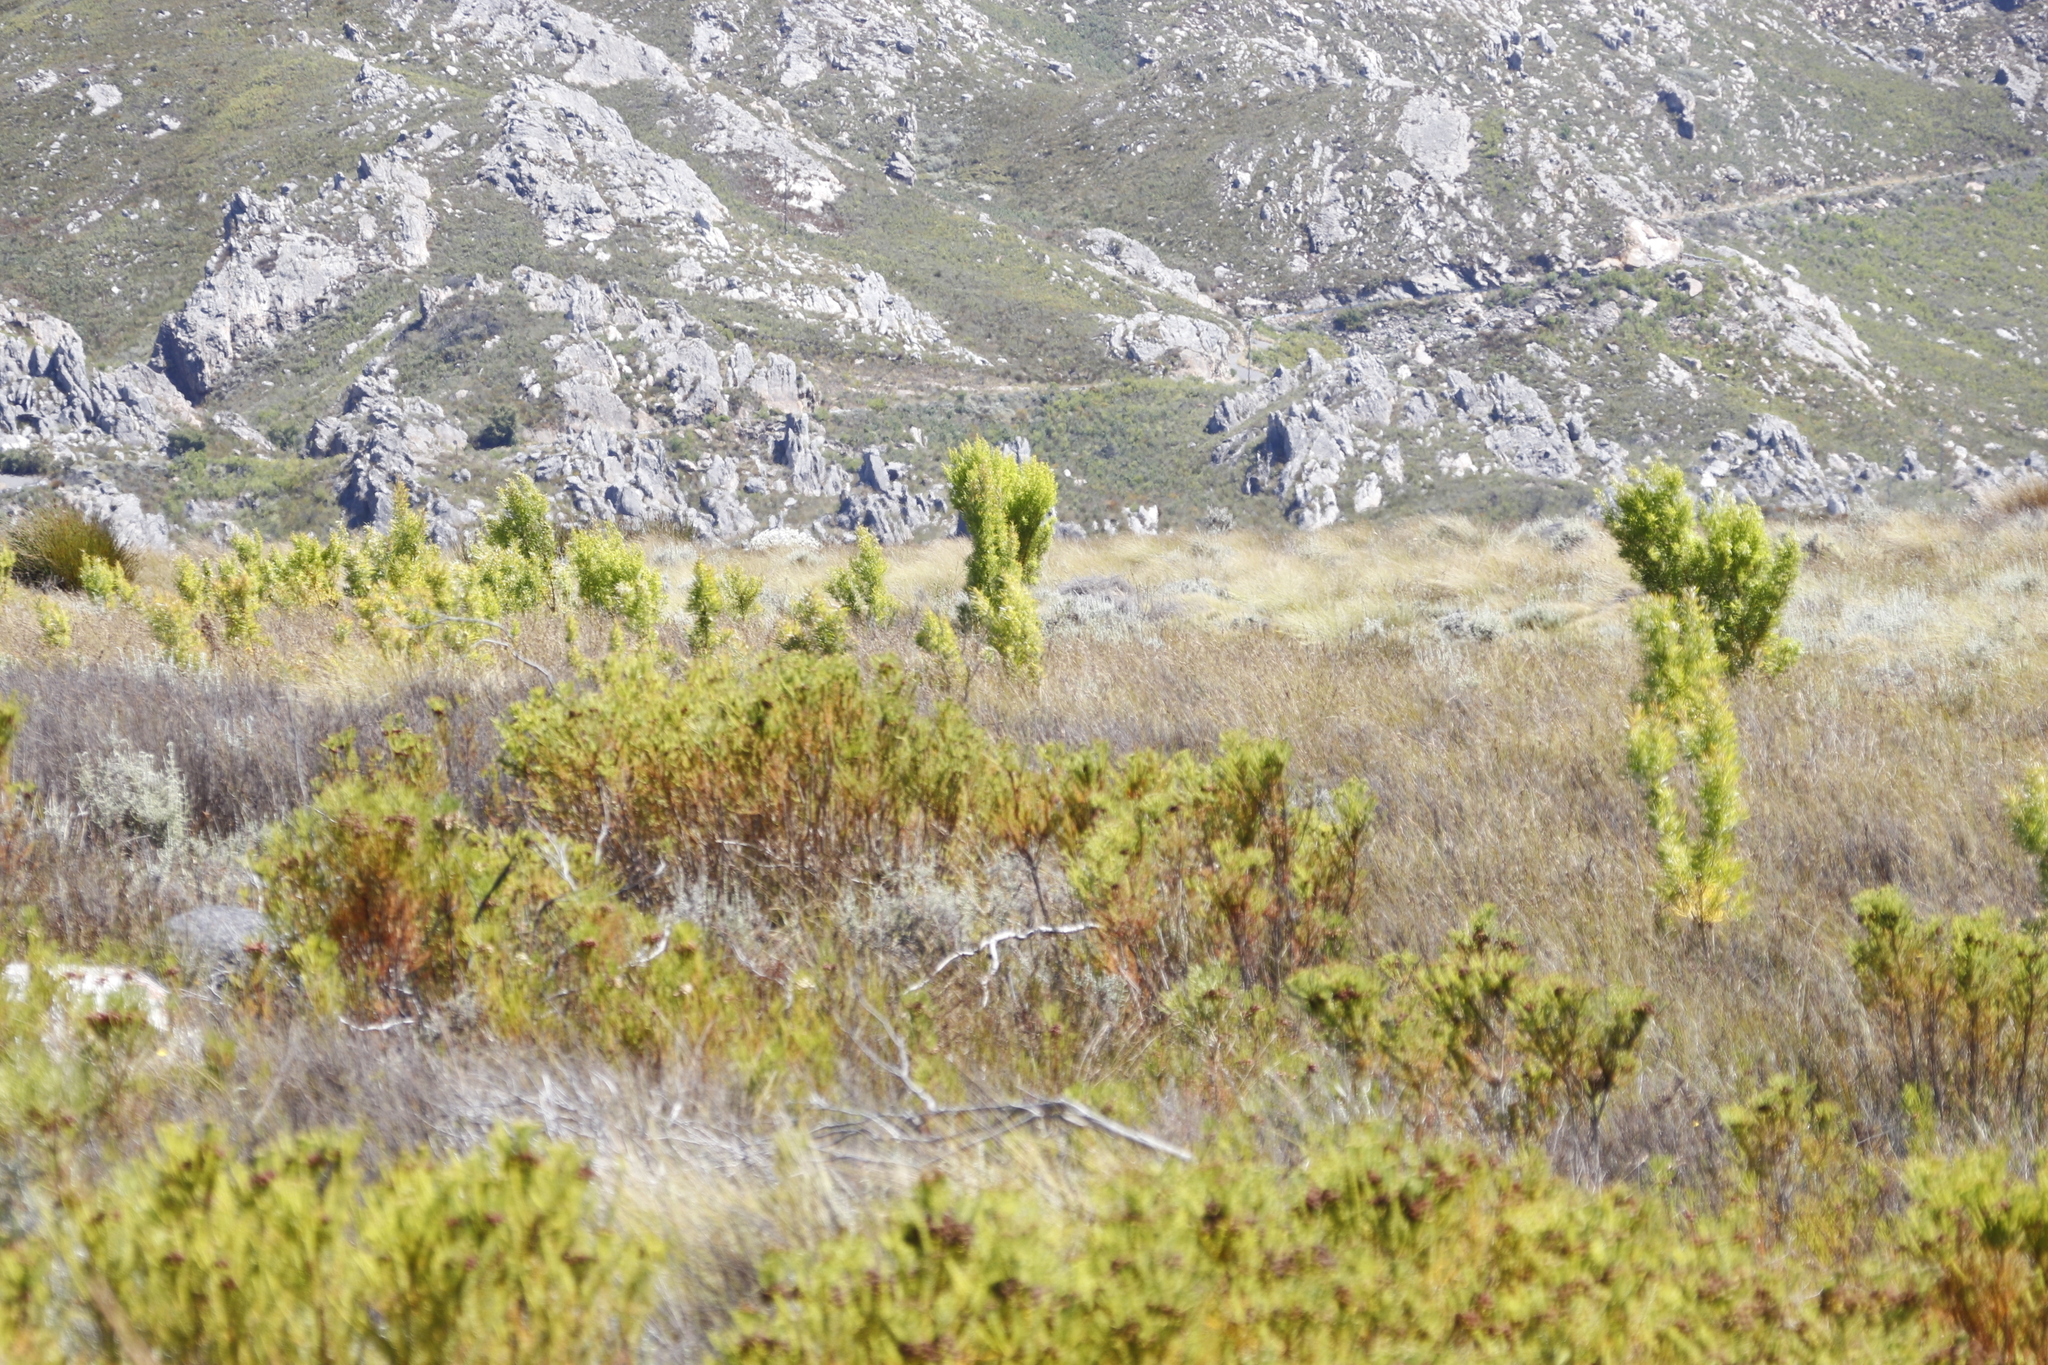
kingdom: Plantae
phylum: Tracheophyta
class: Magnoliopsida
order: Proteales
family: Proteaceae
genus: Leucadendron
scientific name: Leucadendron salicifolium
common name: Common stream conebush
